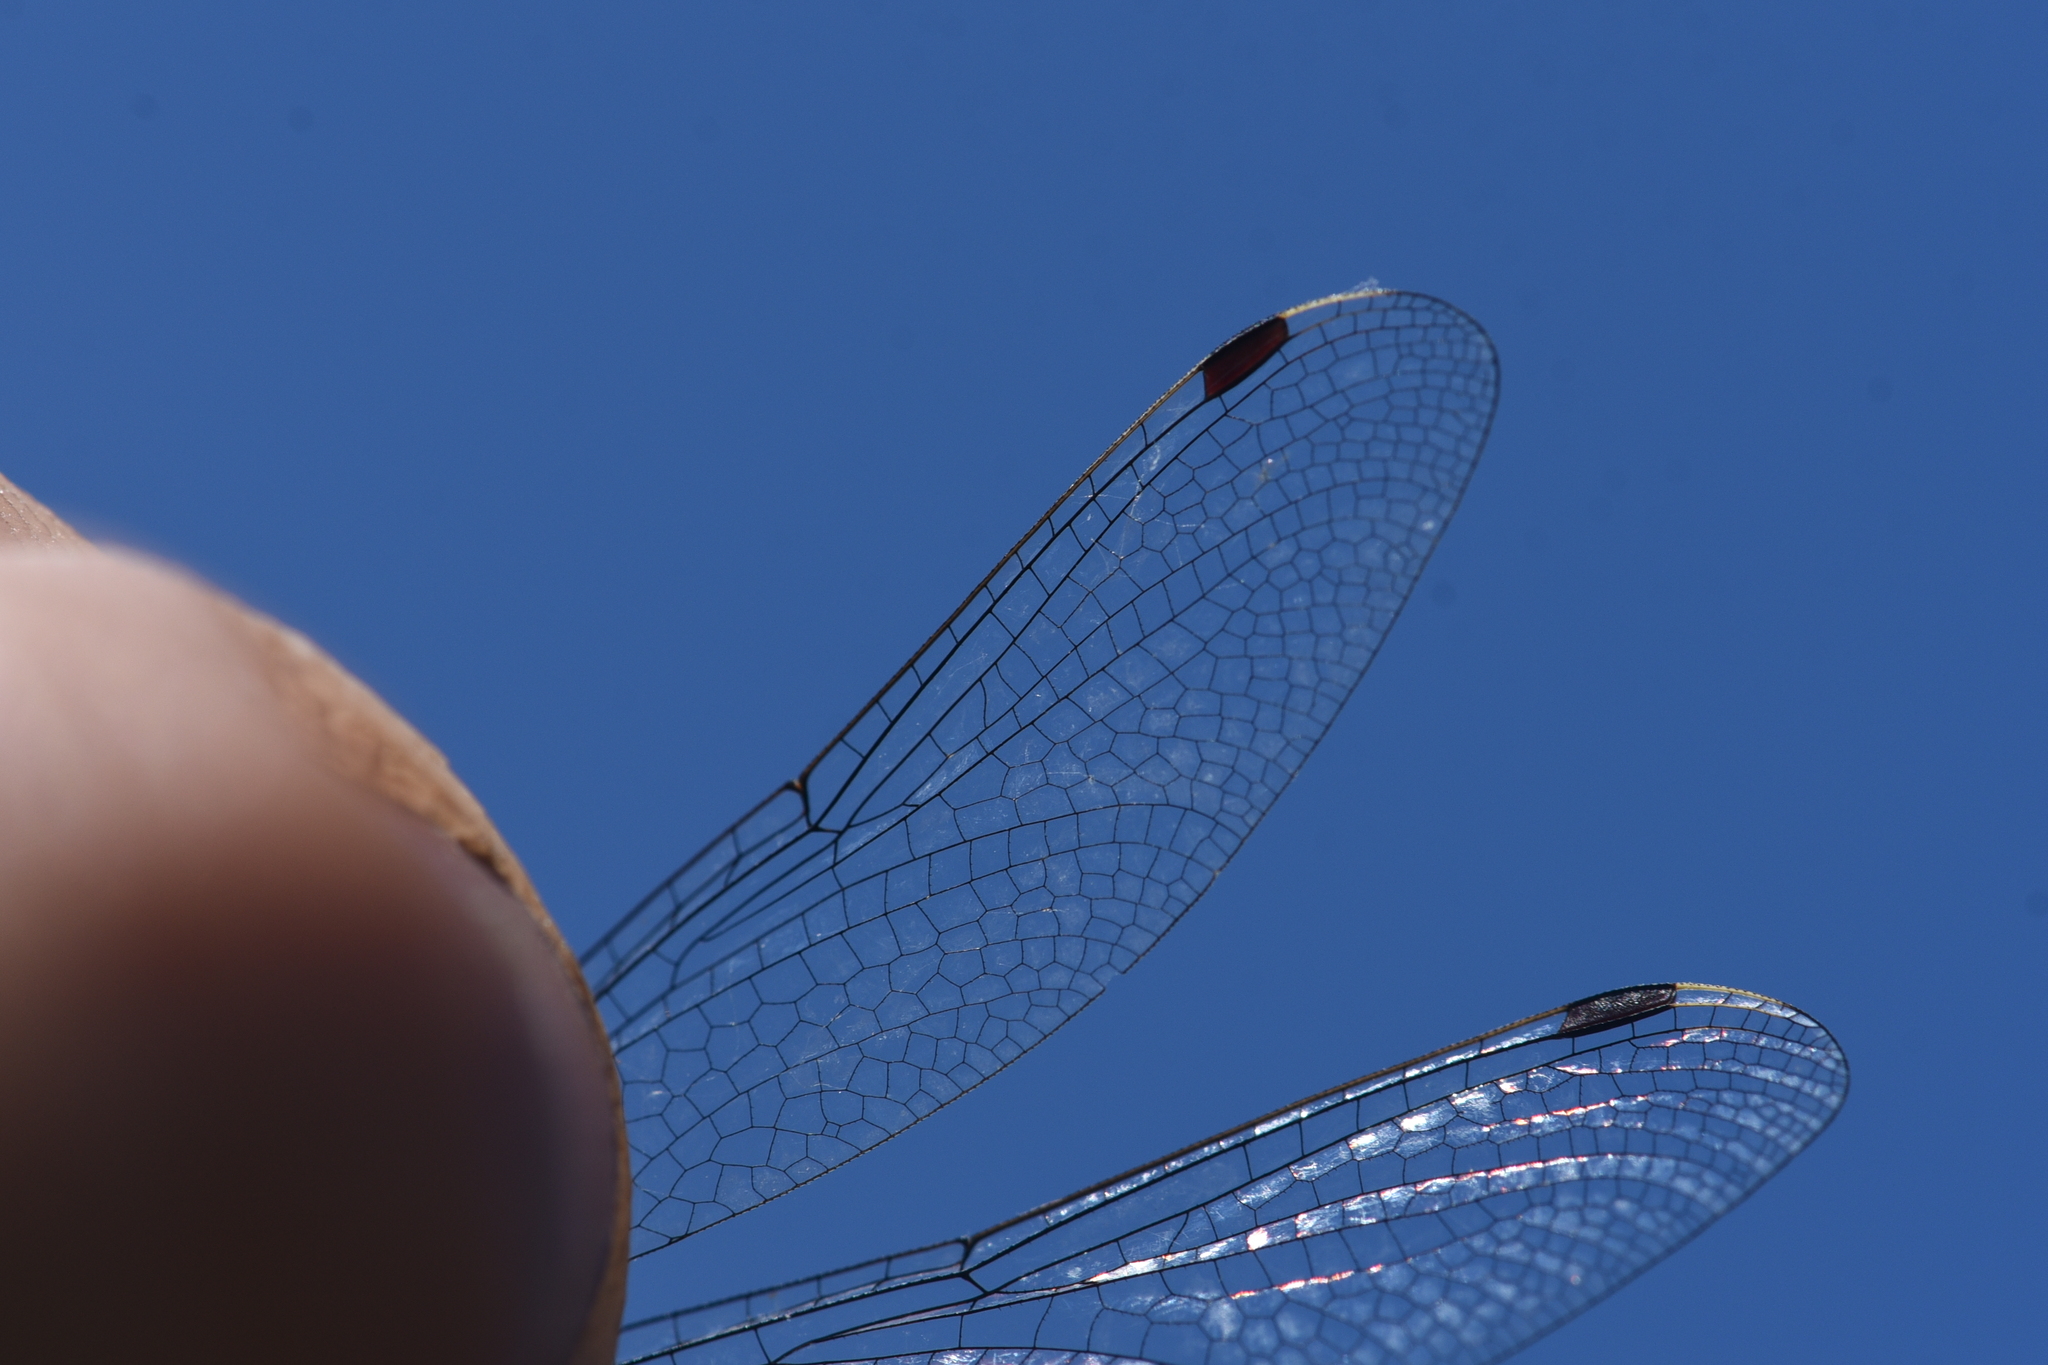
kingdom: Animalia
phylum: Arthropoda
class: Insecta
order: Odonata
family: Libellulidae
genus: Leucorrhinia
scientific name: Leucorrhinia proxima
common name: Belted whiteface
